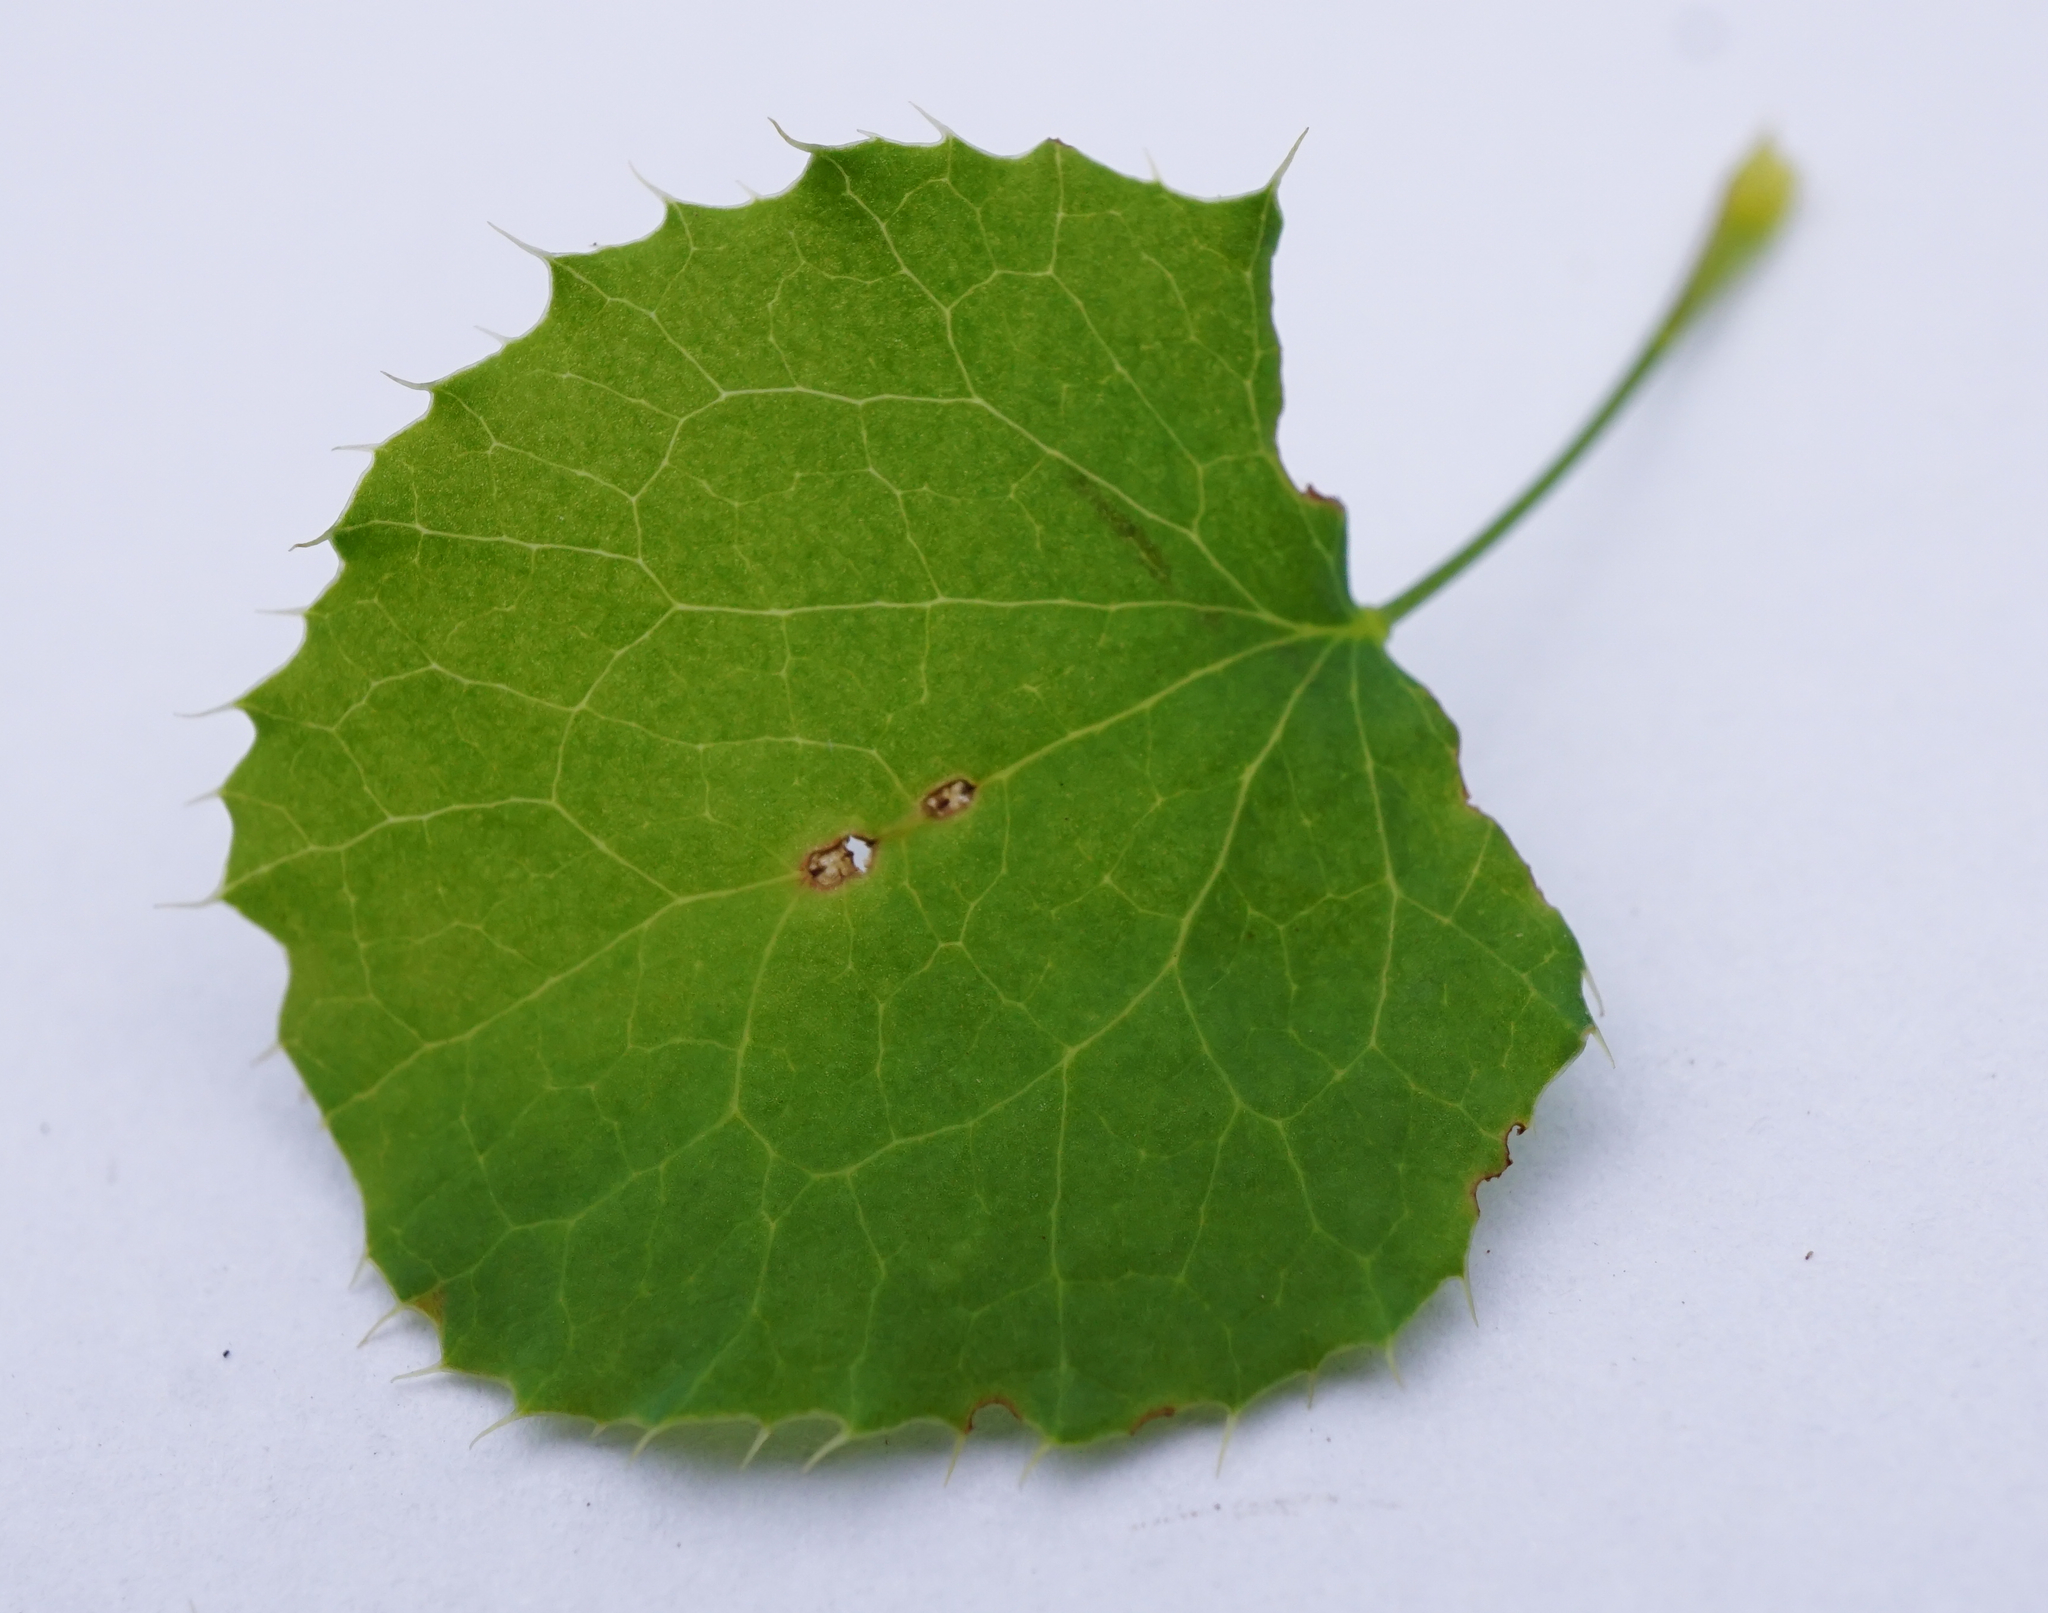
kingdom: Plantae
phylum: Tracheophyta
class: Magnoliopsida
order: Ranunculales
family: Berberidaceae
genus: Berberis
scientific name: Berberis vulgaris
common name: Barberry
